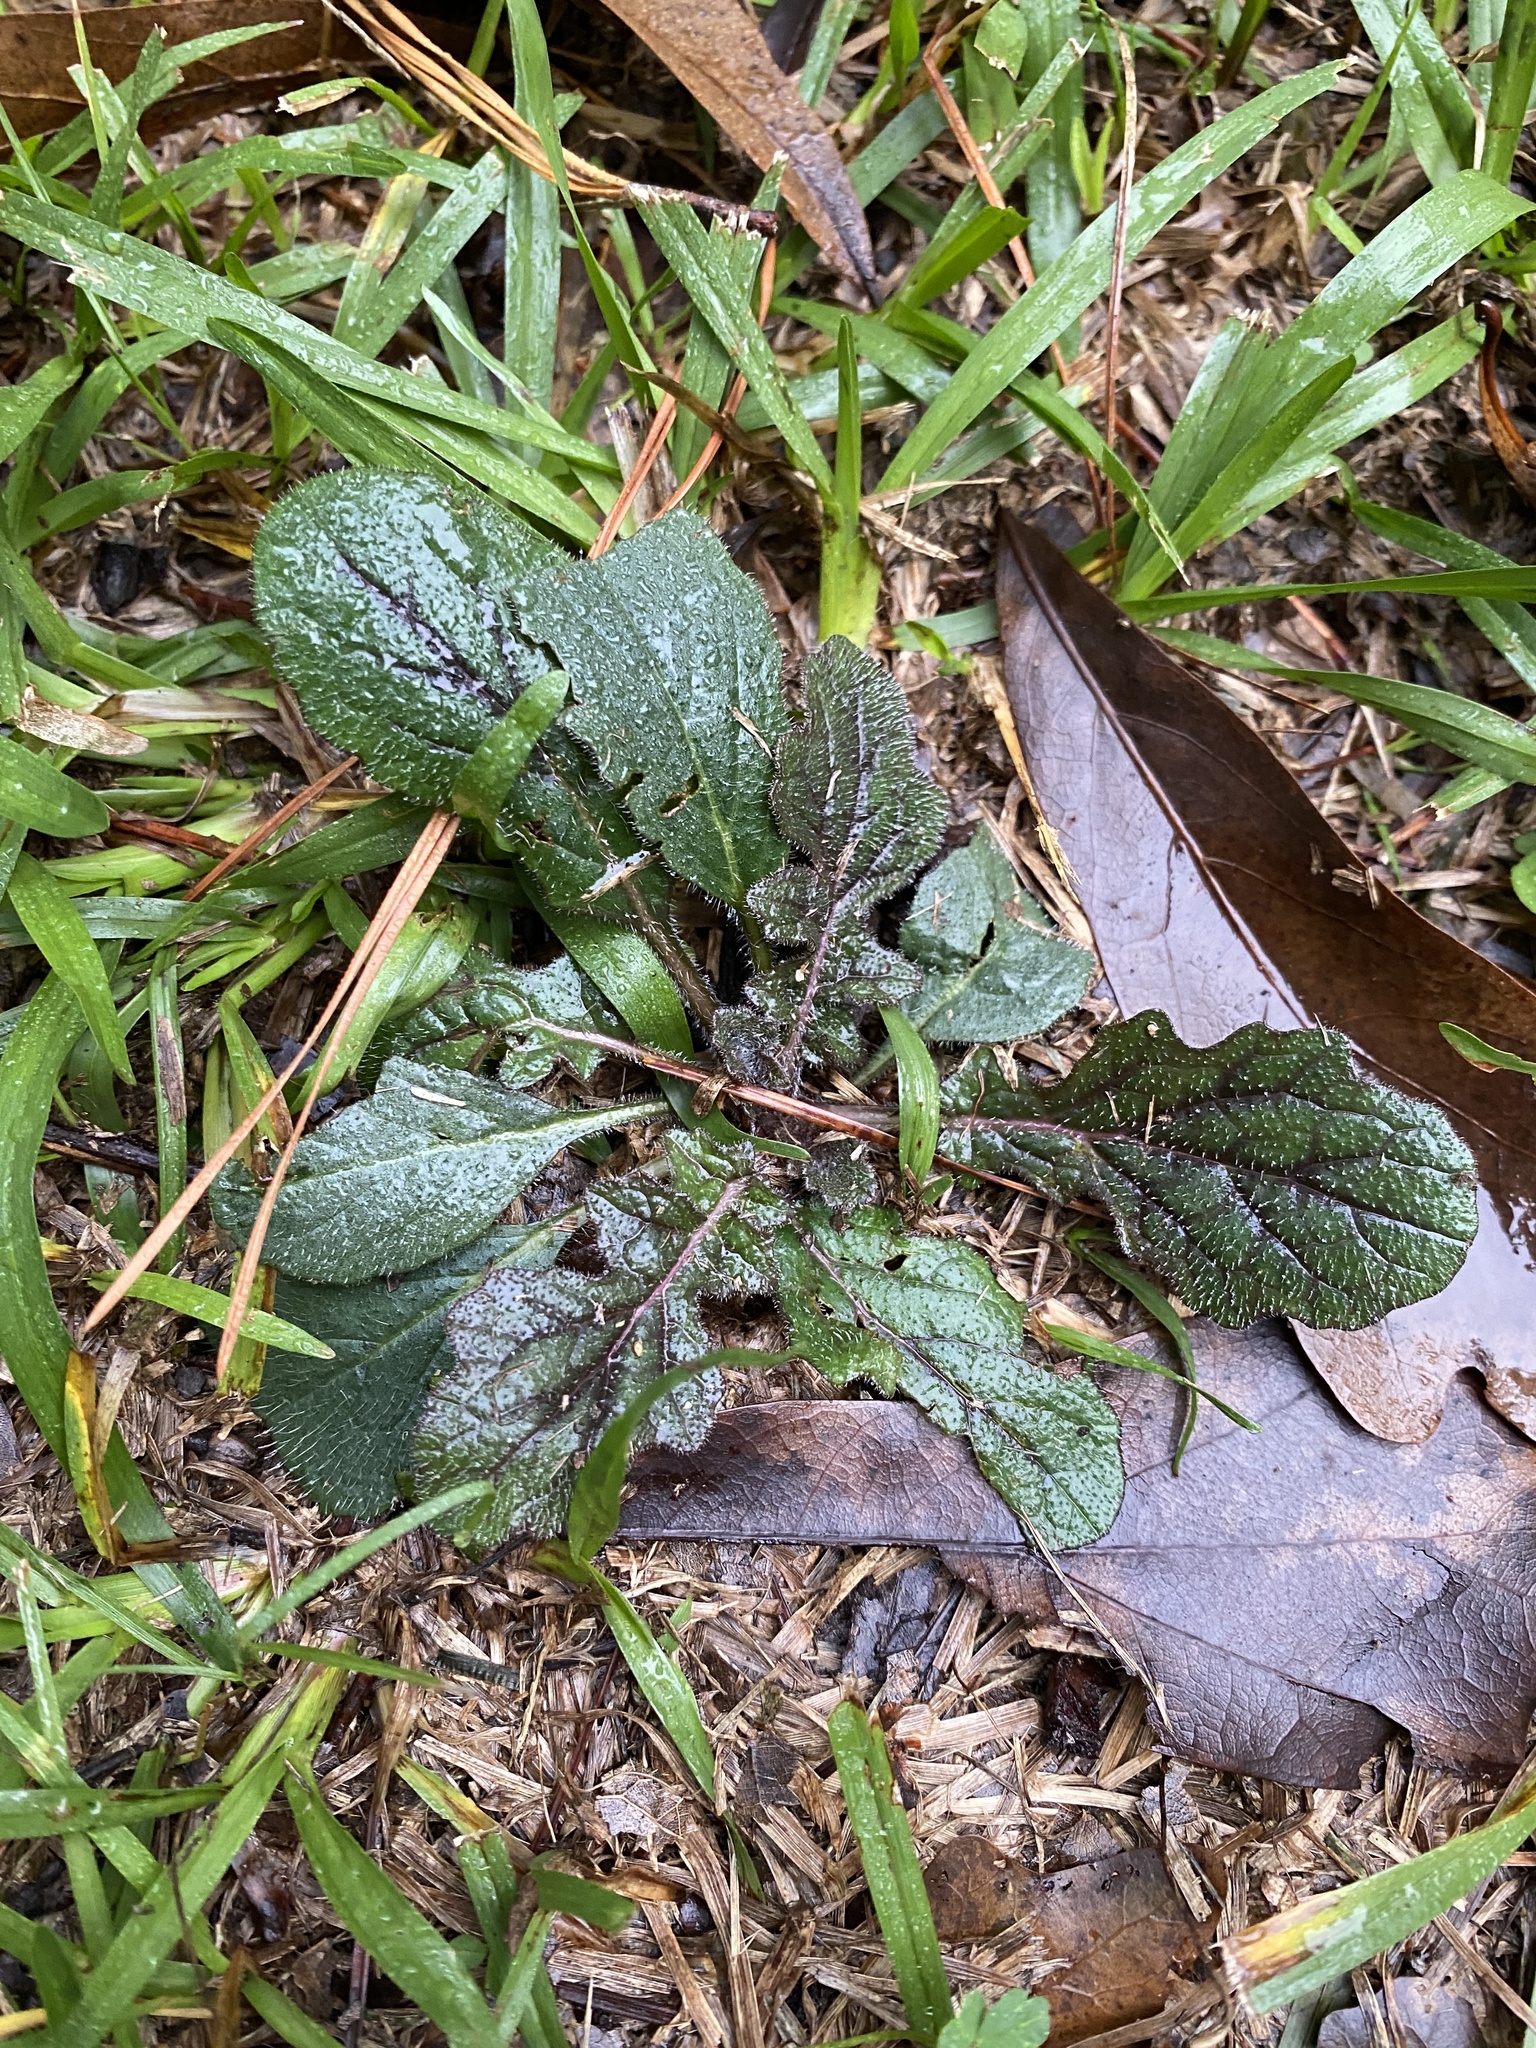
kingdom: Plantae
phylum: Tracheophyta
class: Magnoliopsida
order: Lamiales
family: Lamiaceae
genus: Salvia
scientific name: Salvia lyrata
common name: Cancerweed
